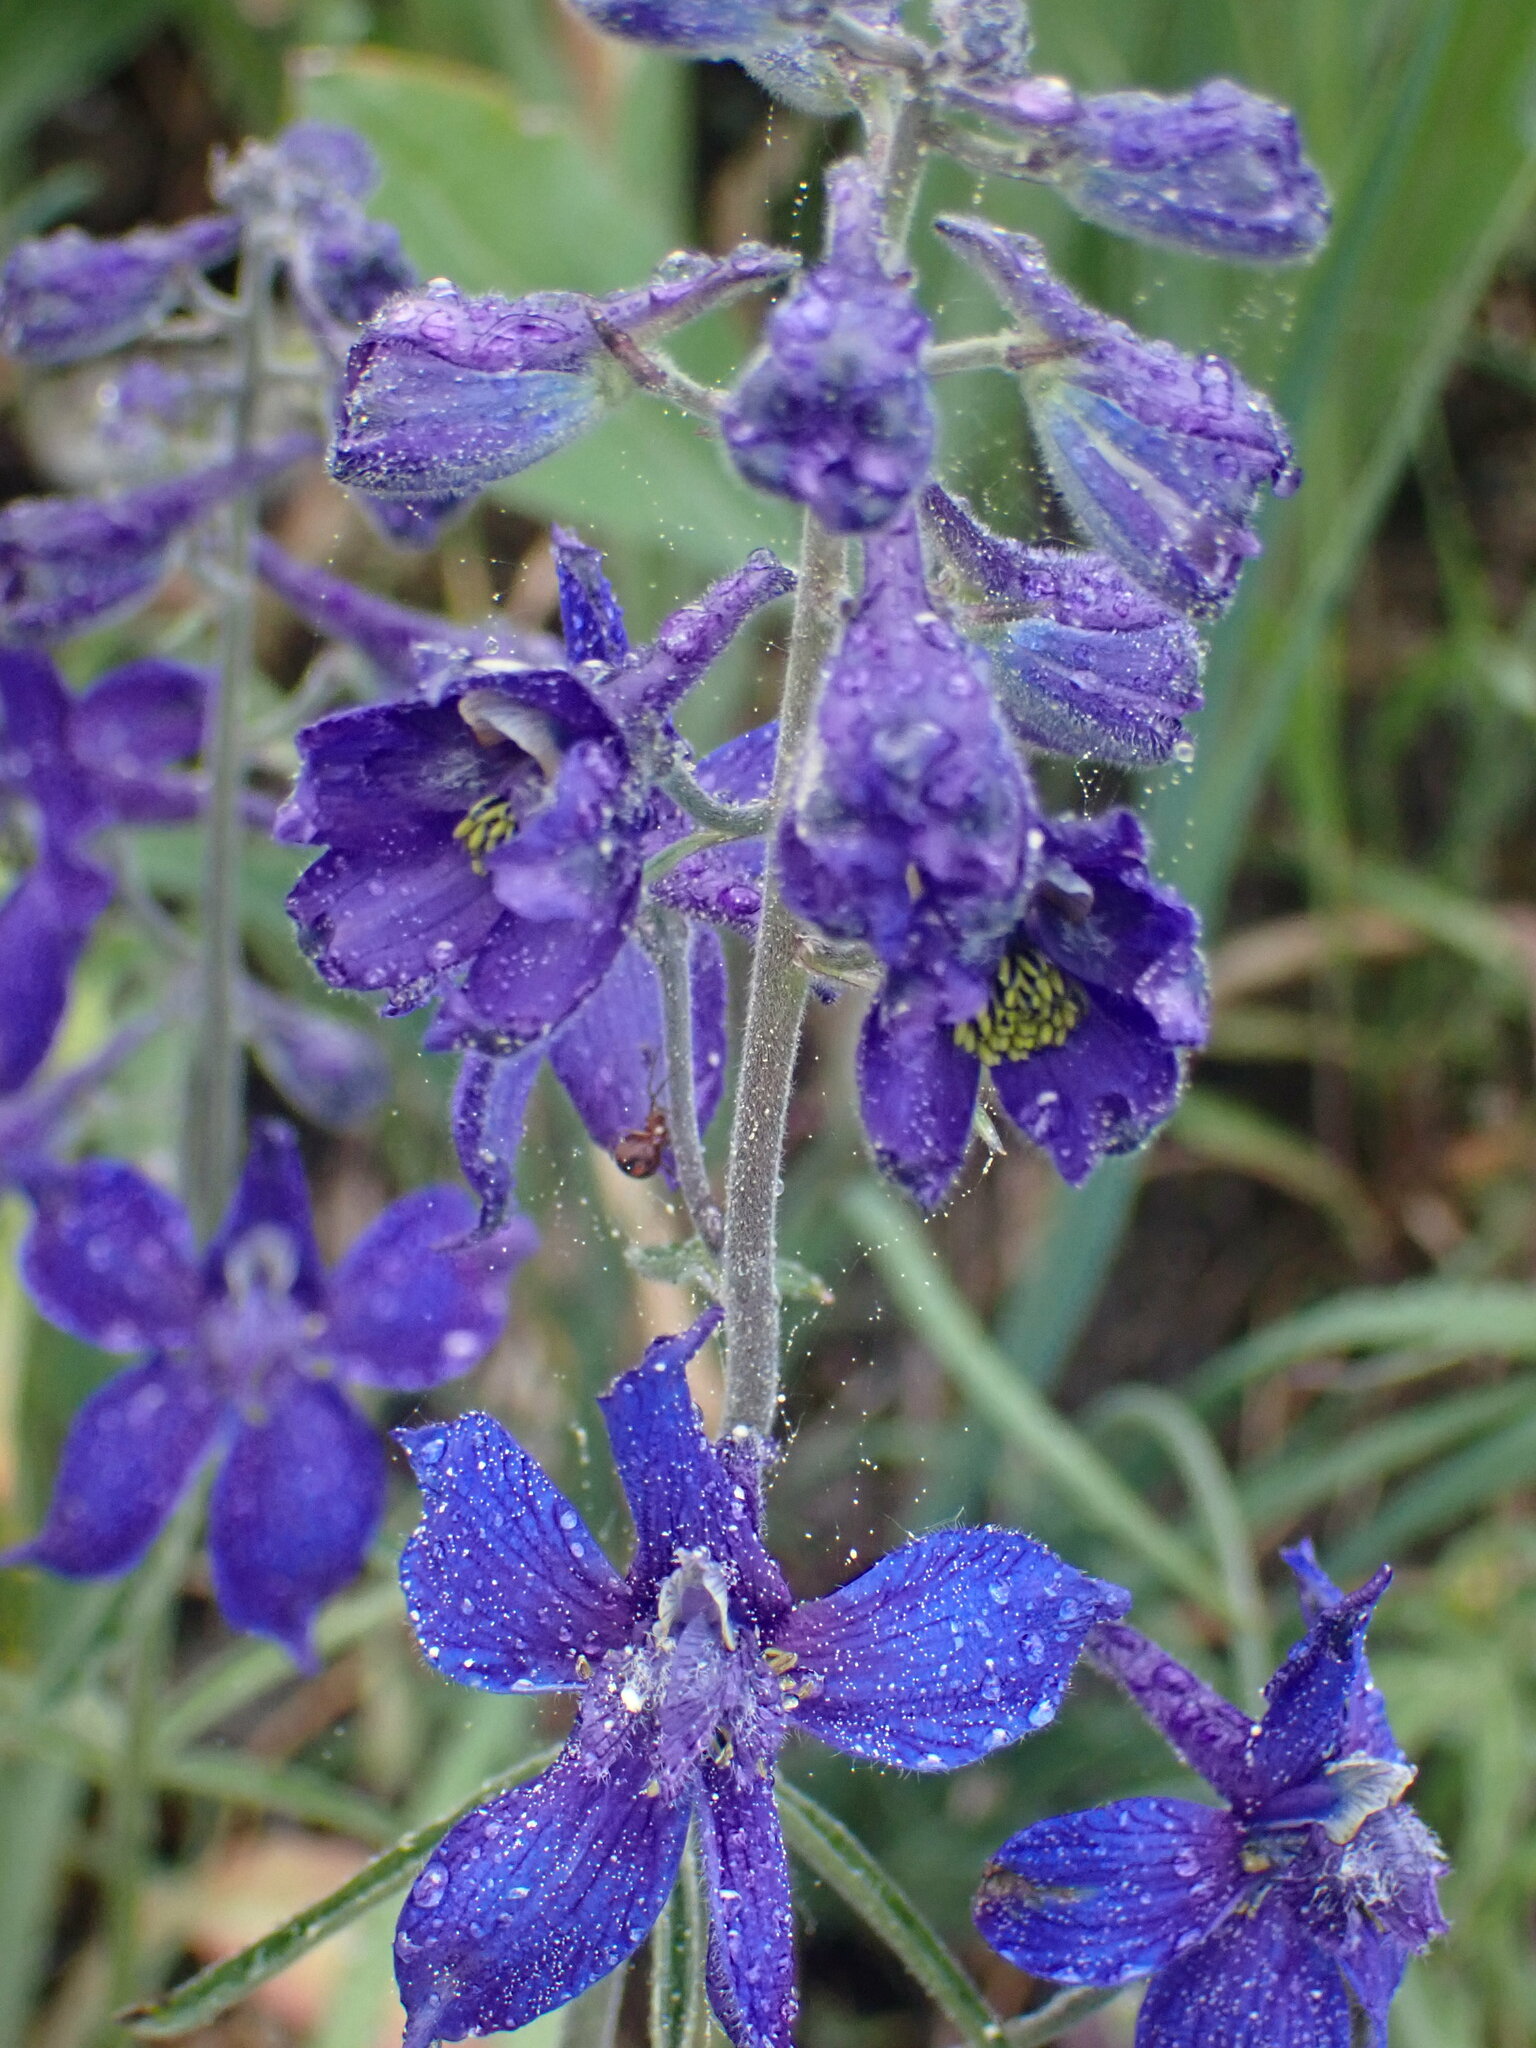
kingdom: Plantae
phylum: Tracheophyta
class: Magnoliopsida
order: Ranunculales
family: Ranunculaceae
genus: Delphinium
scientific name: Delphinium nuttallianum
